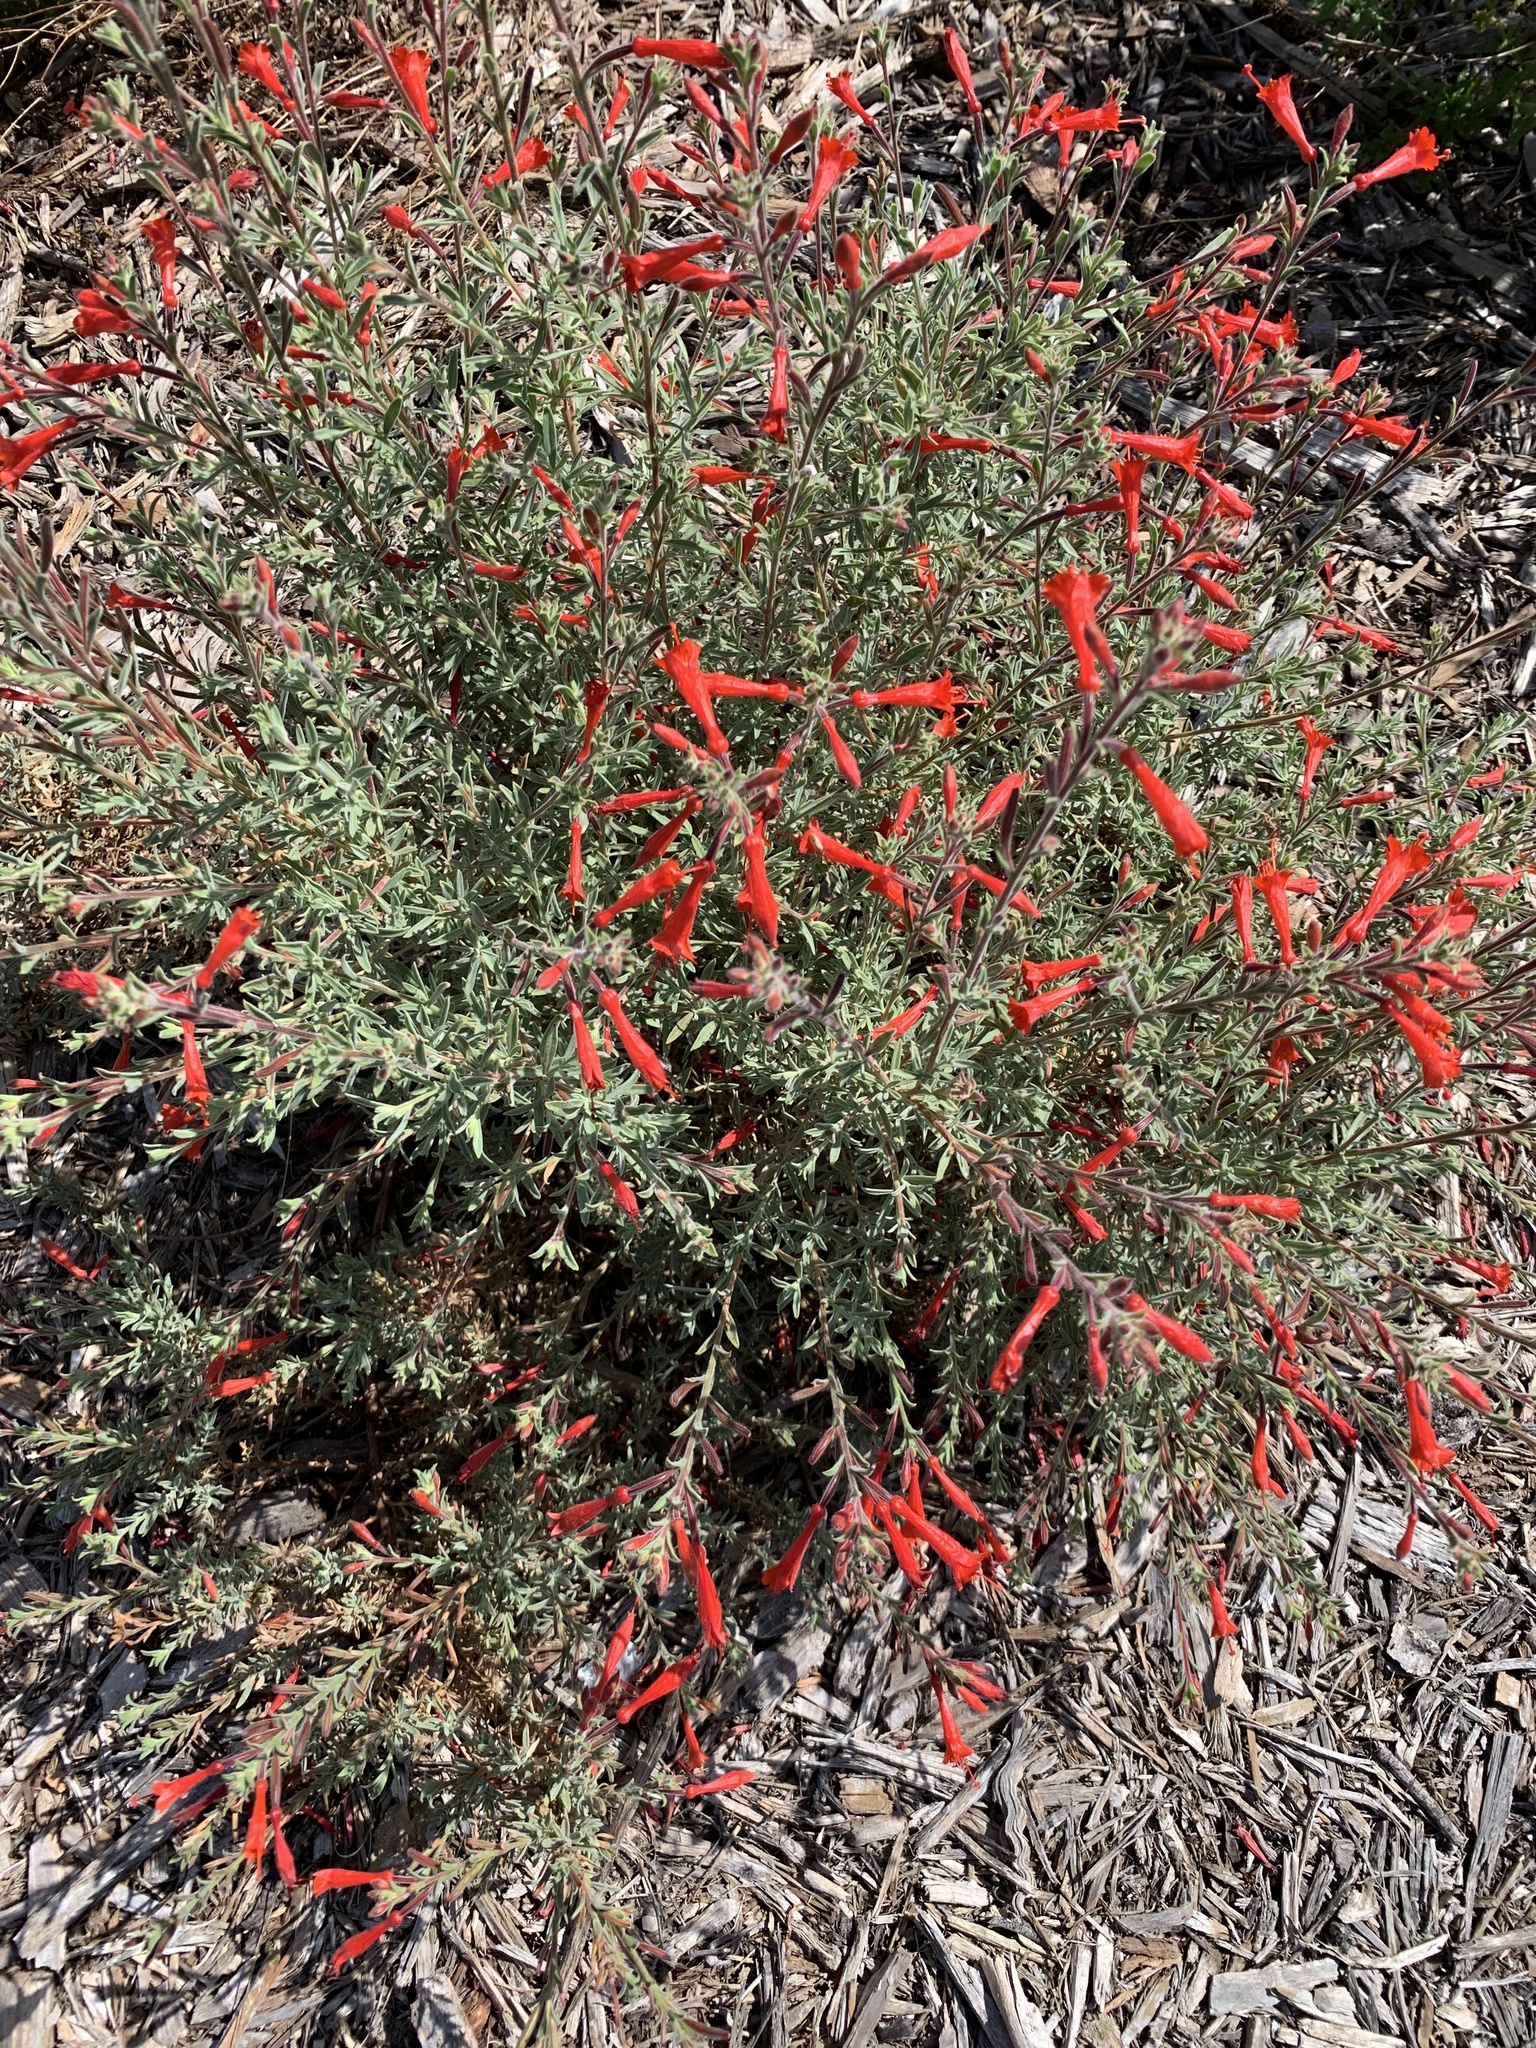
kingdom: Plantae
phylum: Tracheophyta
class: Magnoliopsida
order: Myrtales
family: Onagraceae
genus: Epilobium
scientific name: Epilobium canum
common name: California-fuchsia
